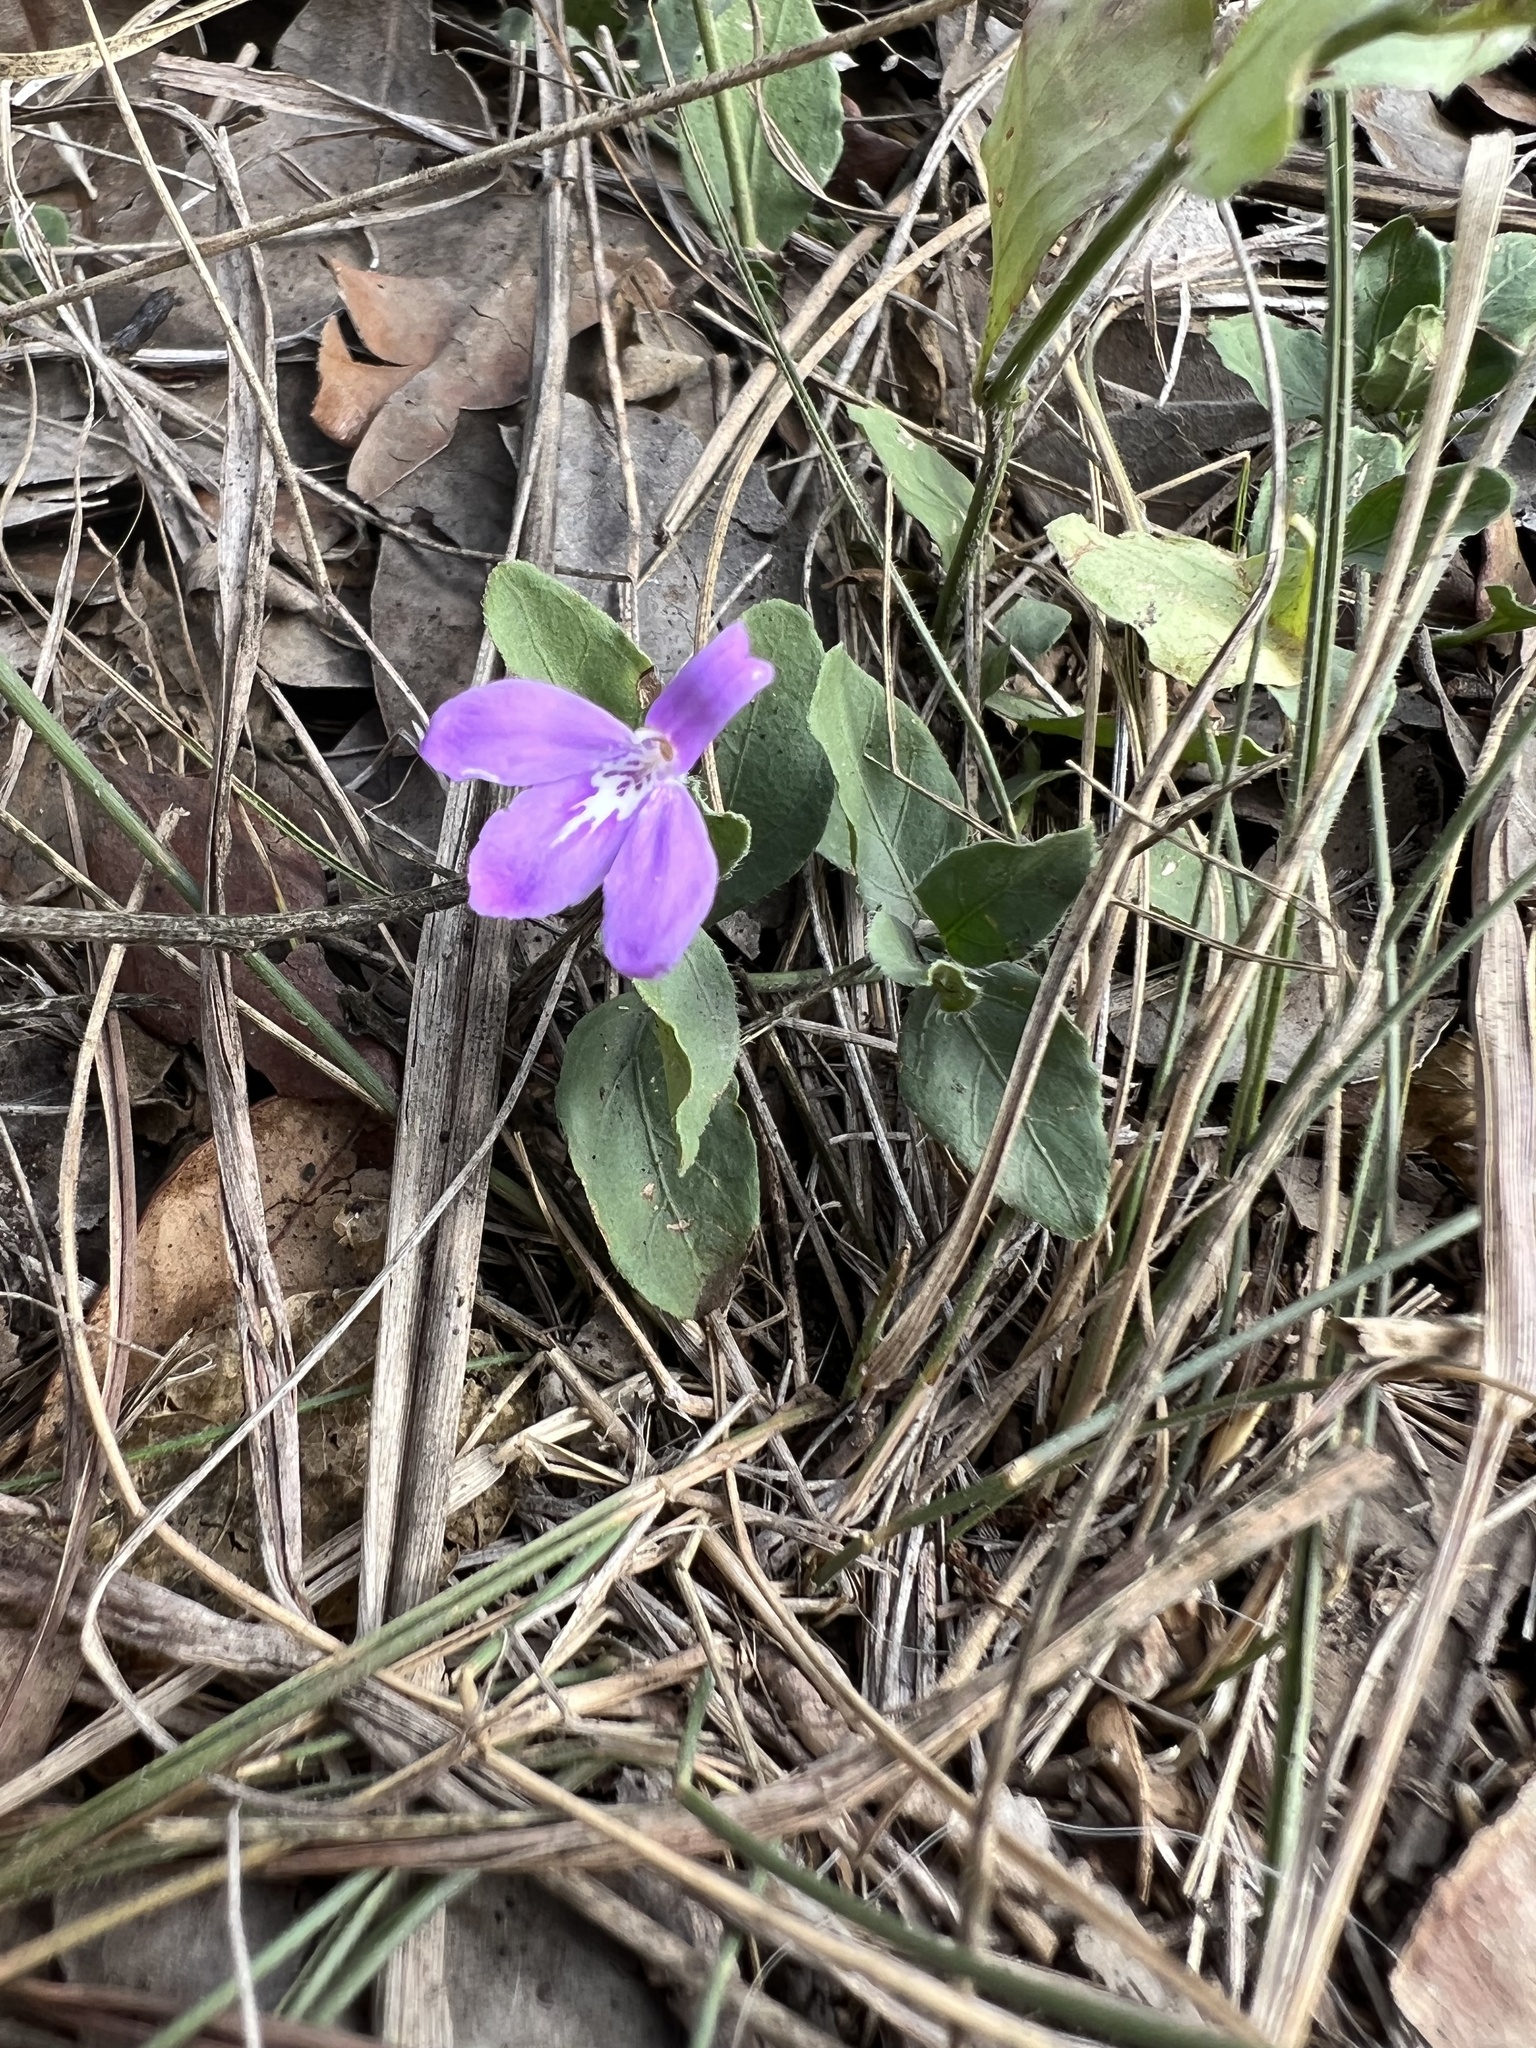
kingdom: Plantae
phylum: Tracheophyta
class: Magnoliopsida
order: Lamiales
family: Acanthaceae
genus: Justicia
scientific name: Justicia pilosella
